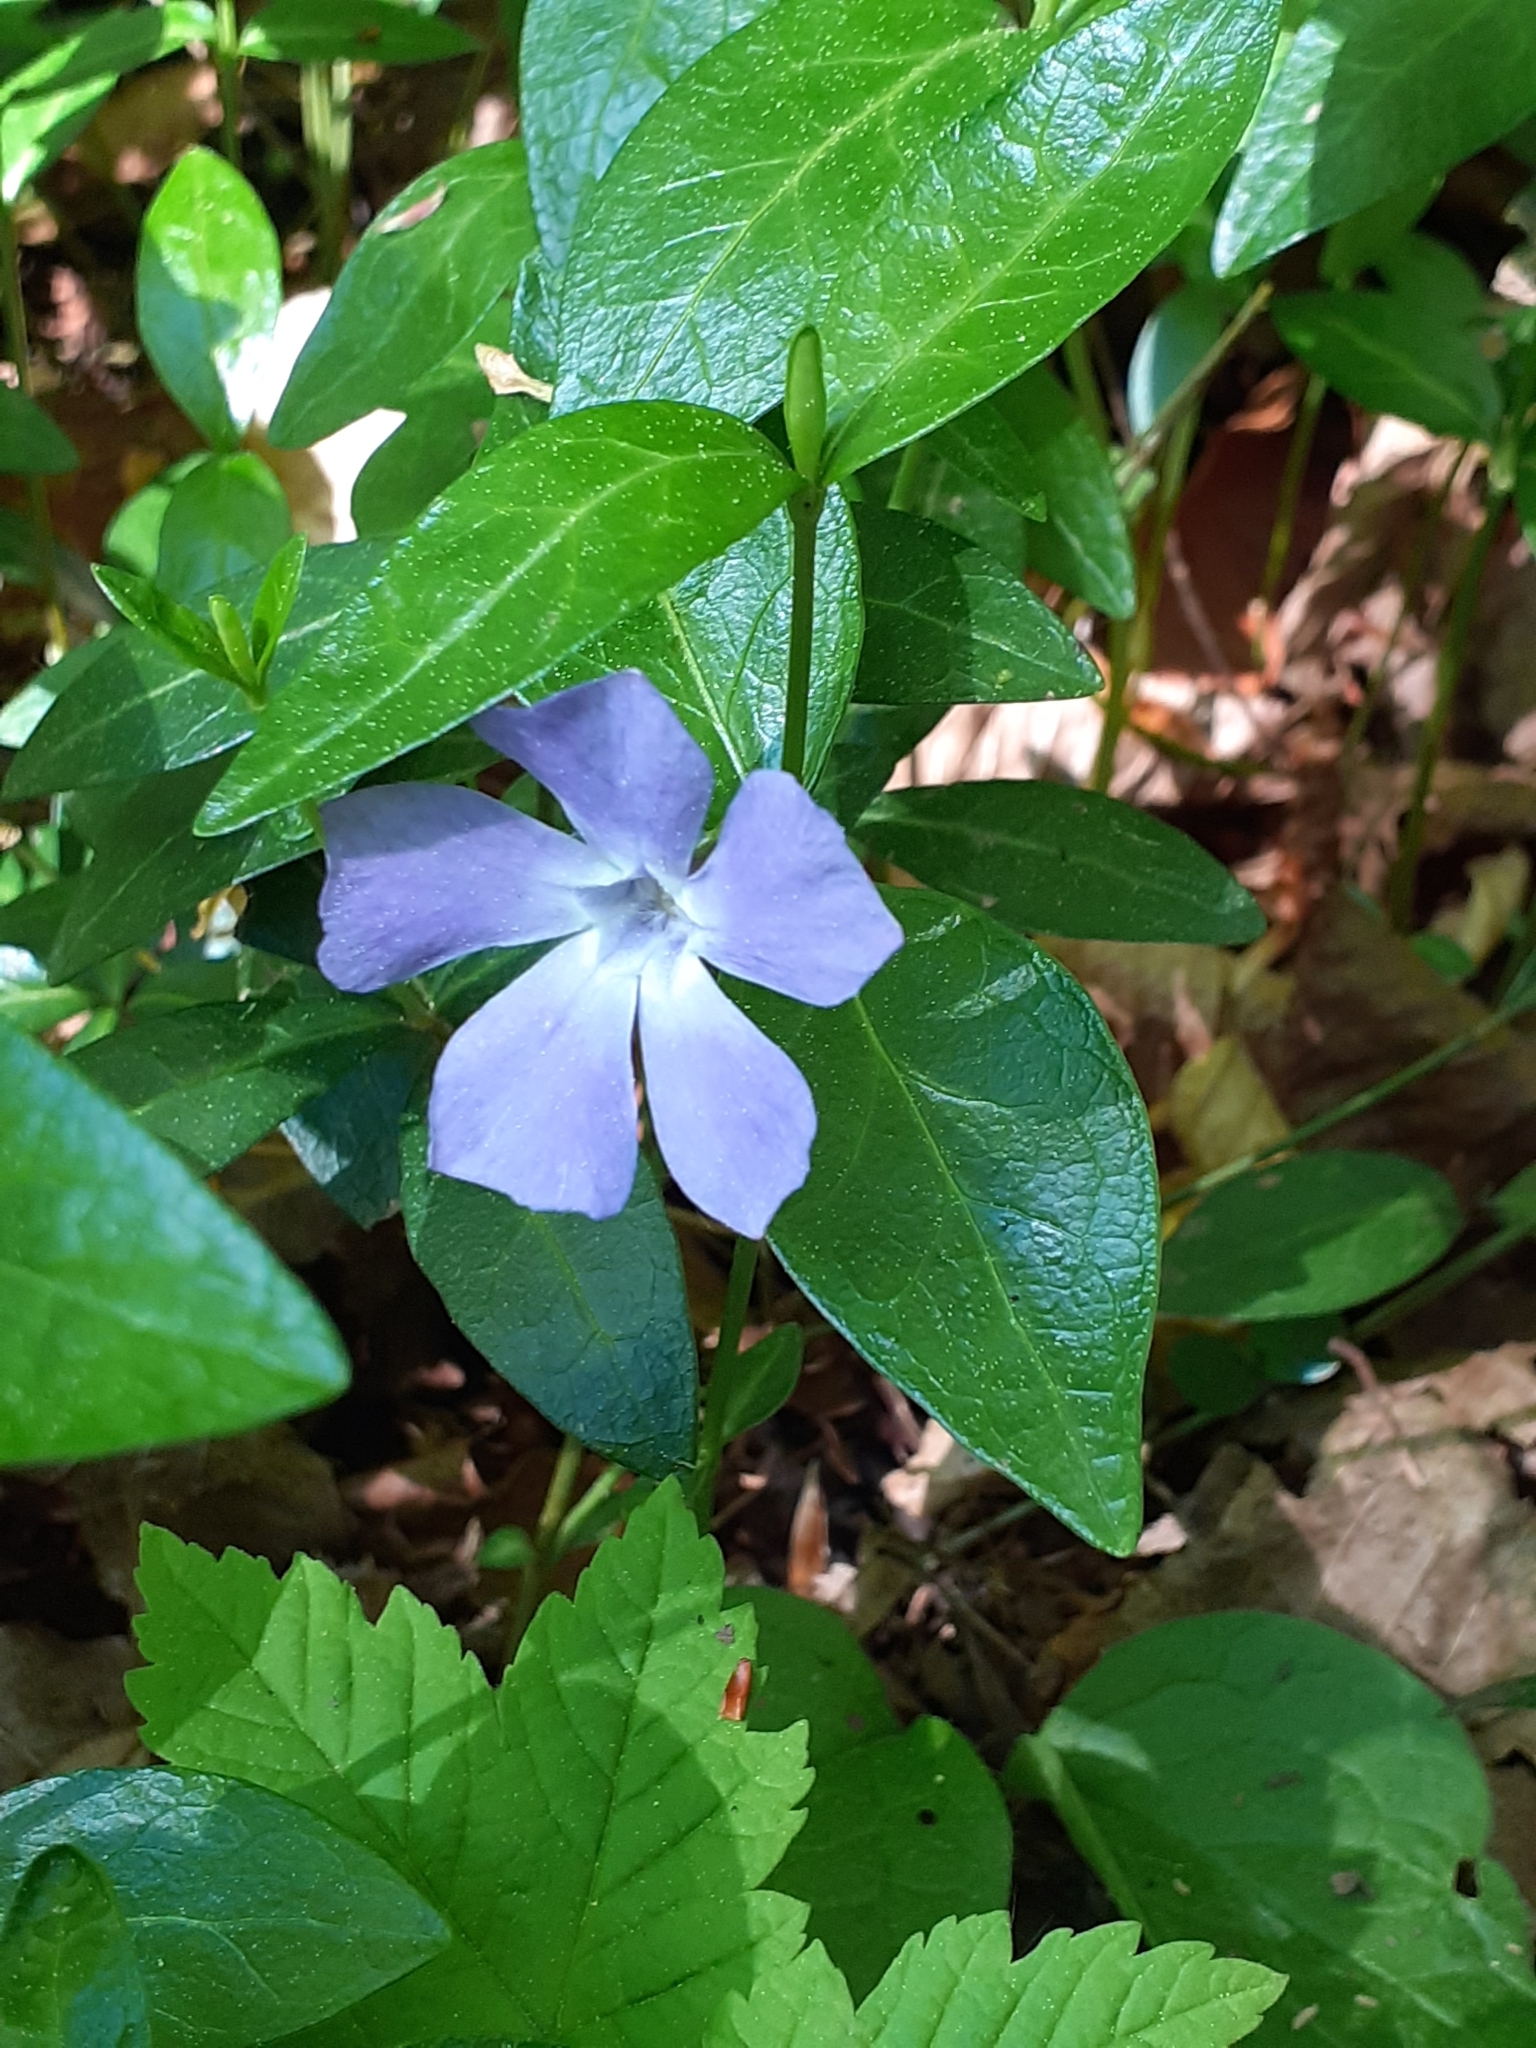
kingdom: Plantae
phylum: Tracheophyta
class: Magnoliopsida
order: Gentianales
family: Apocynaceae
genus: Vinca
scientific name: Vinca minor
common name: Lesser periwinkle
